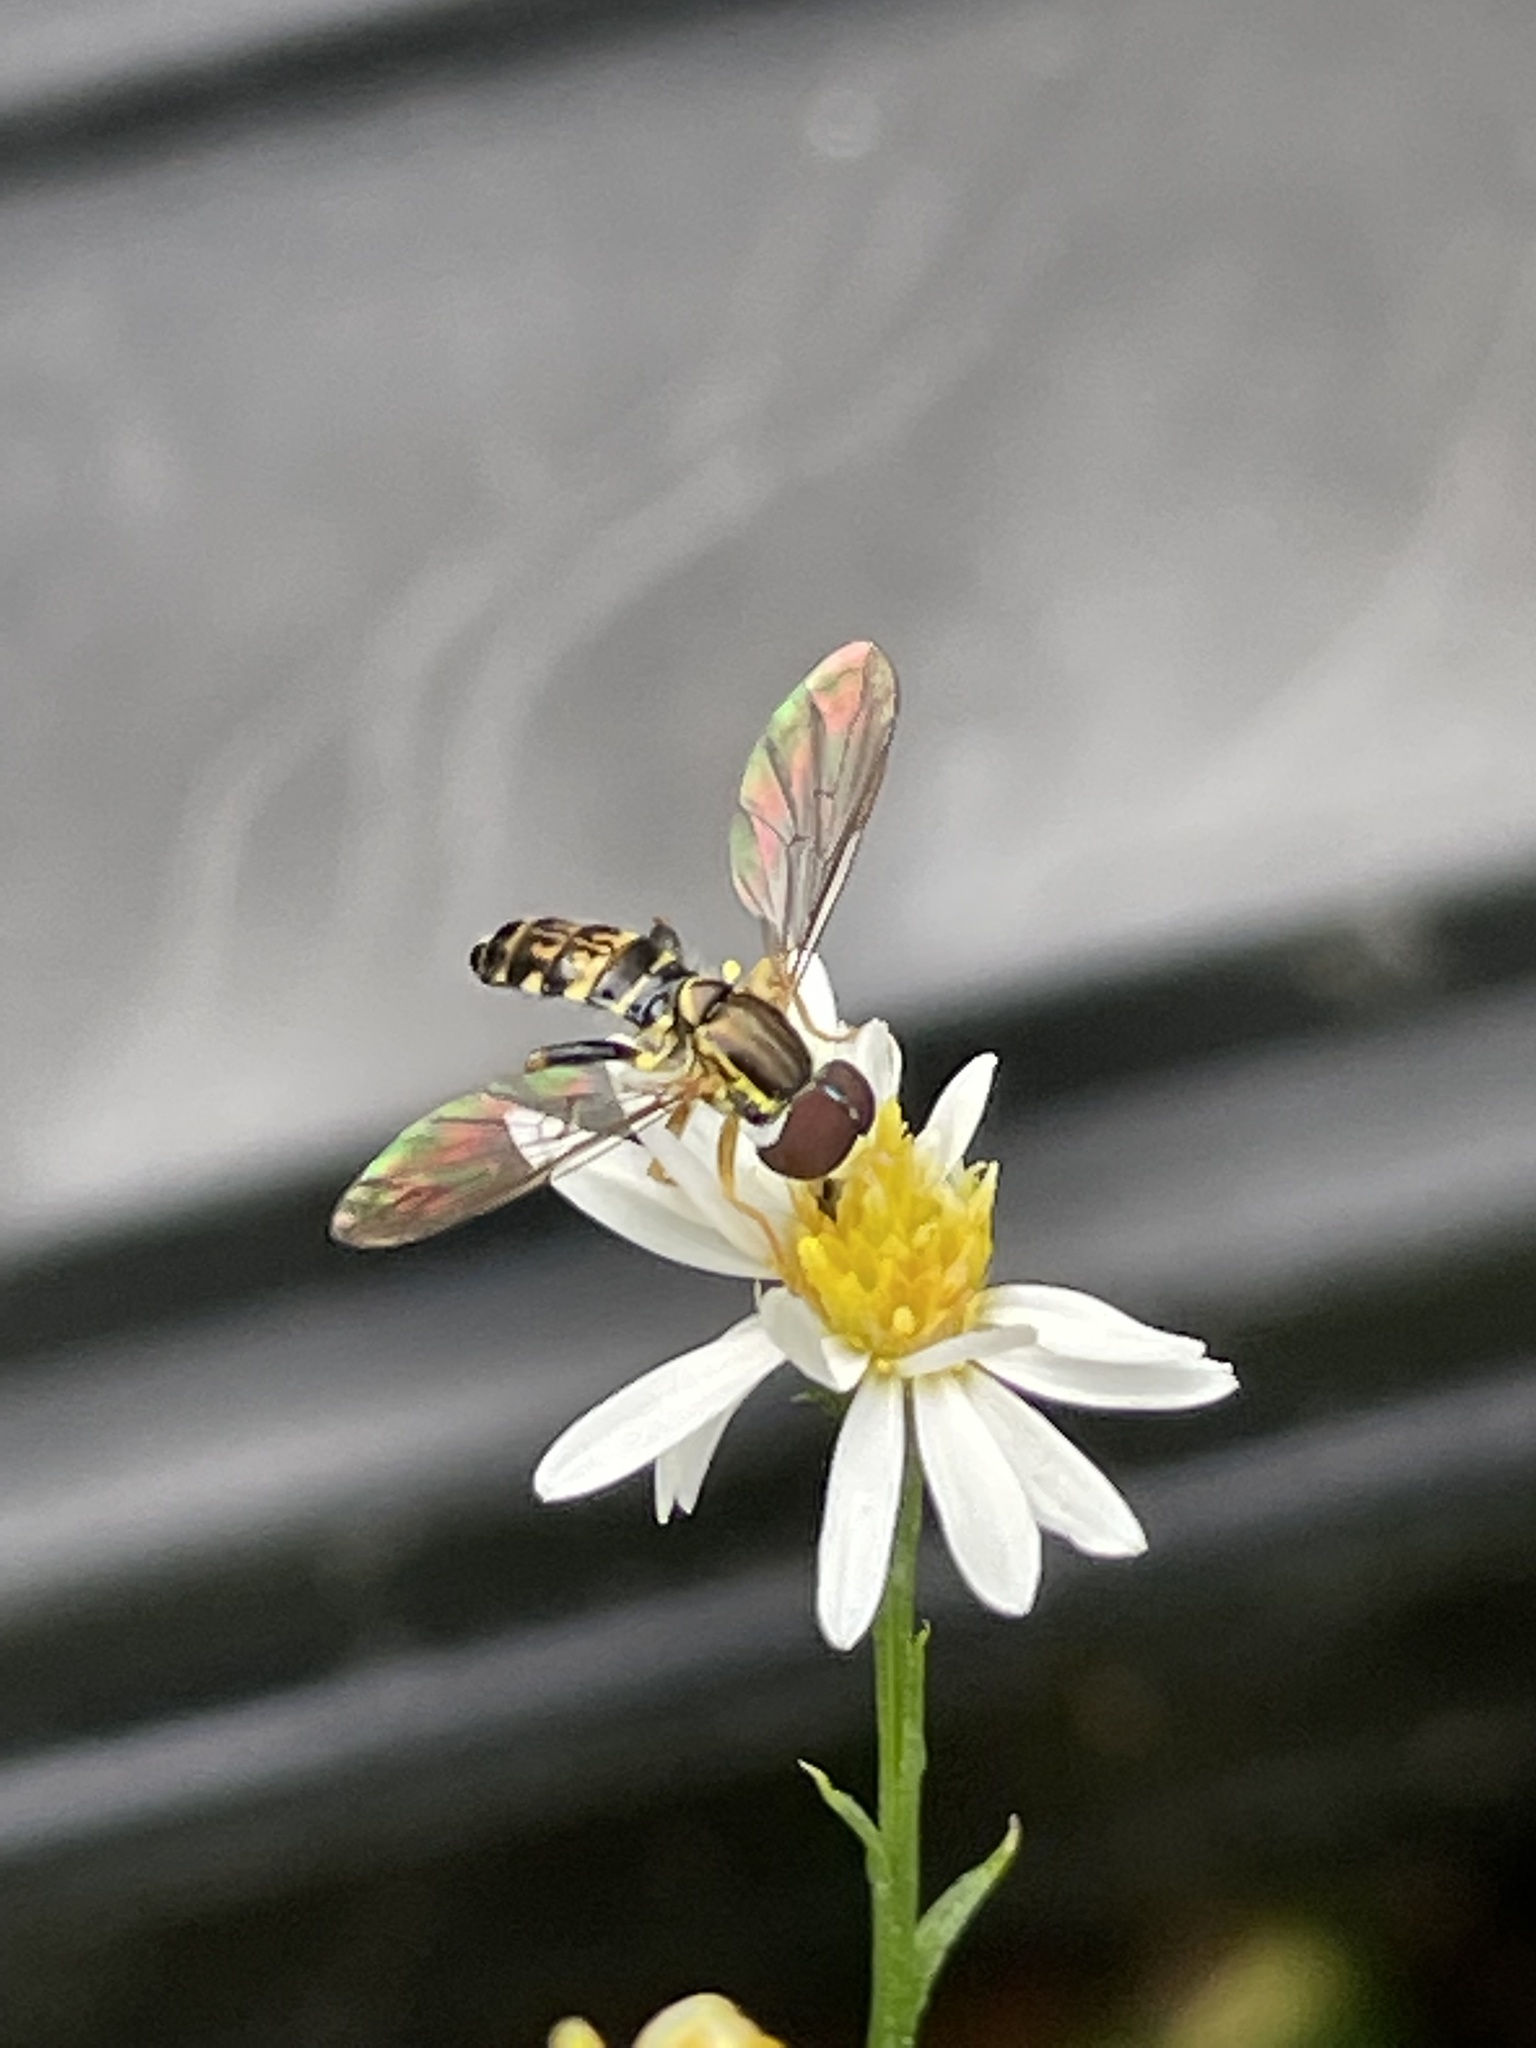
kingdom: Animalia
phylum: Arthropoda
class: Insecta
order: Diptera
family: Syrphidae
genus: Toxomerus
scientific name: Toxomerus geminatus
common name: Eastern calligrapher
